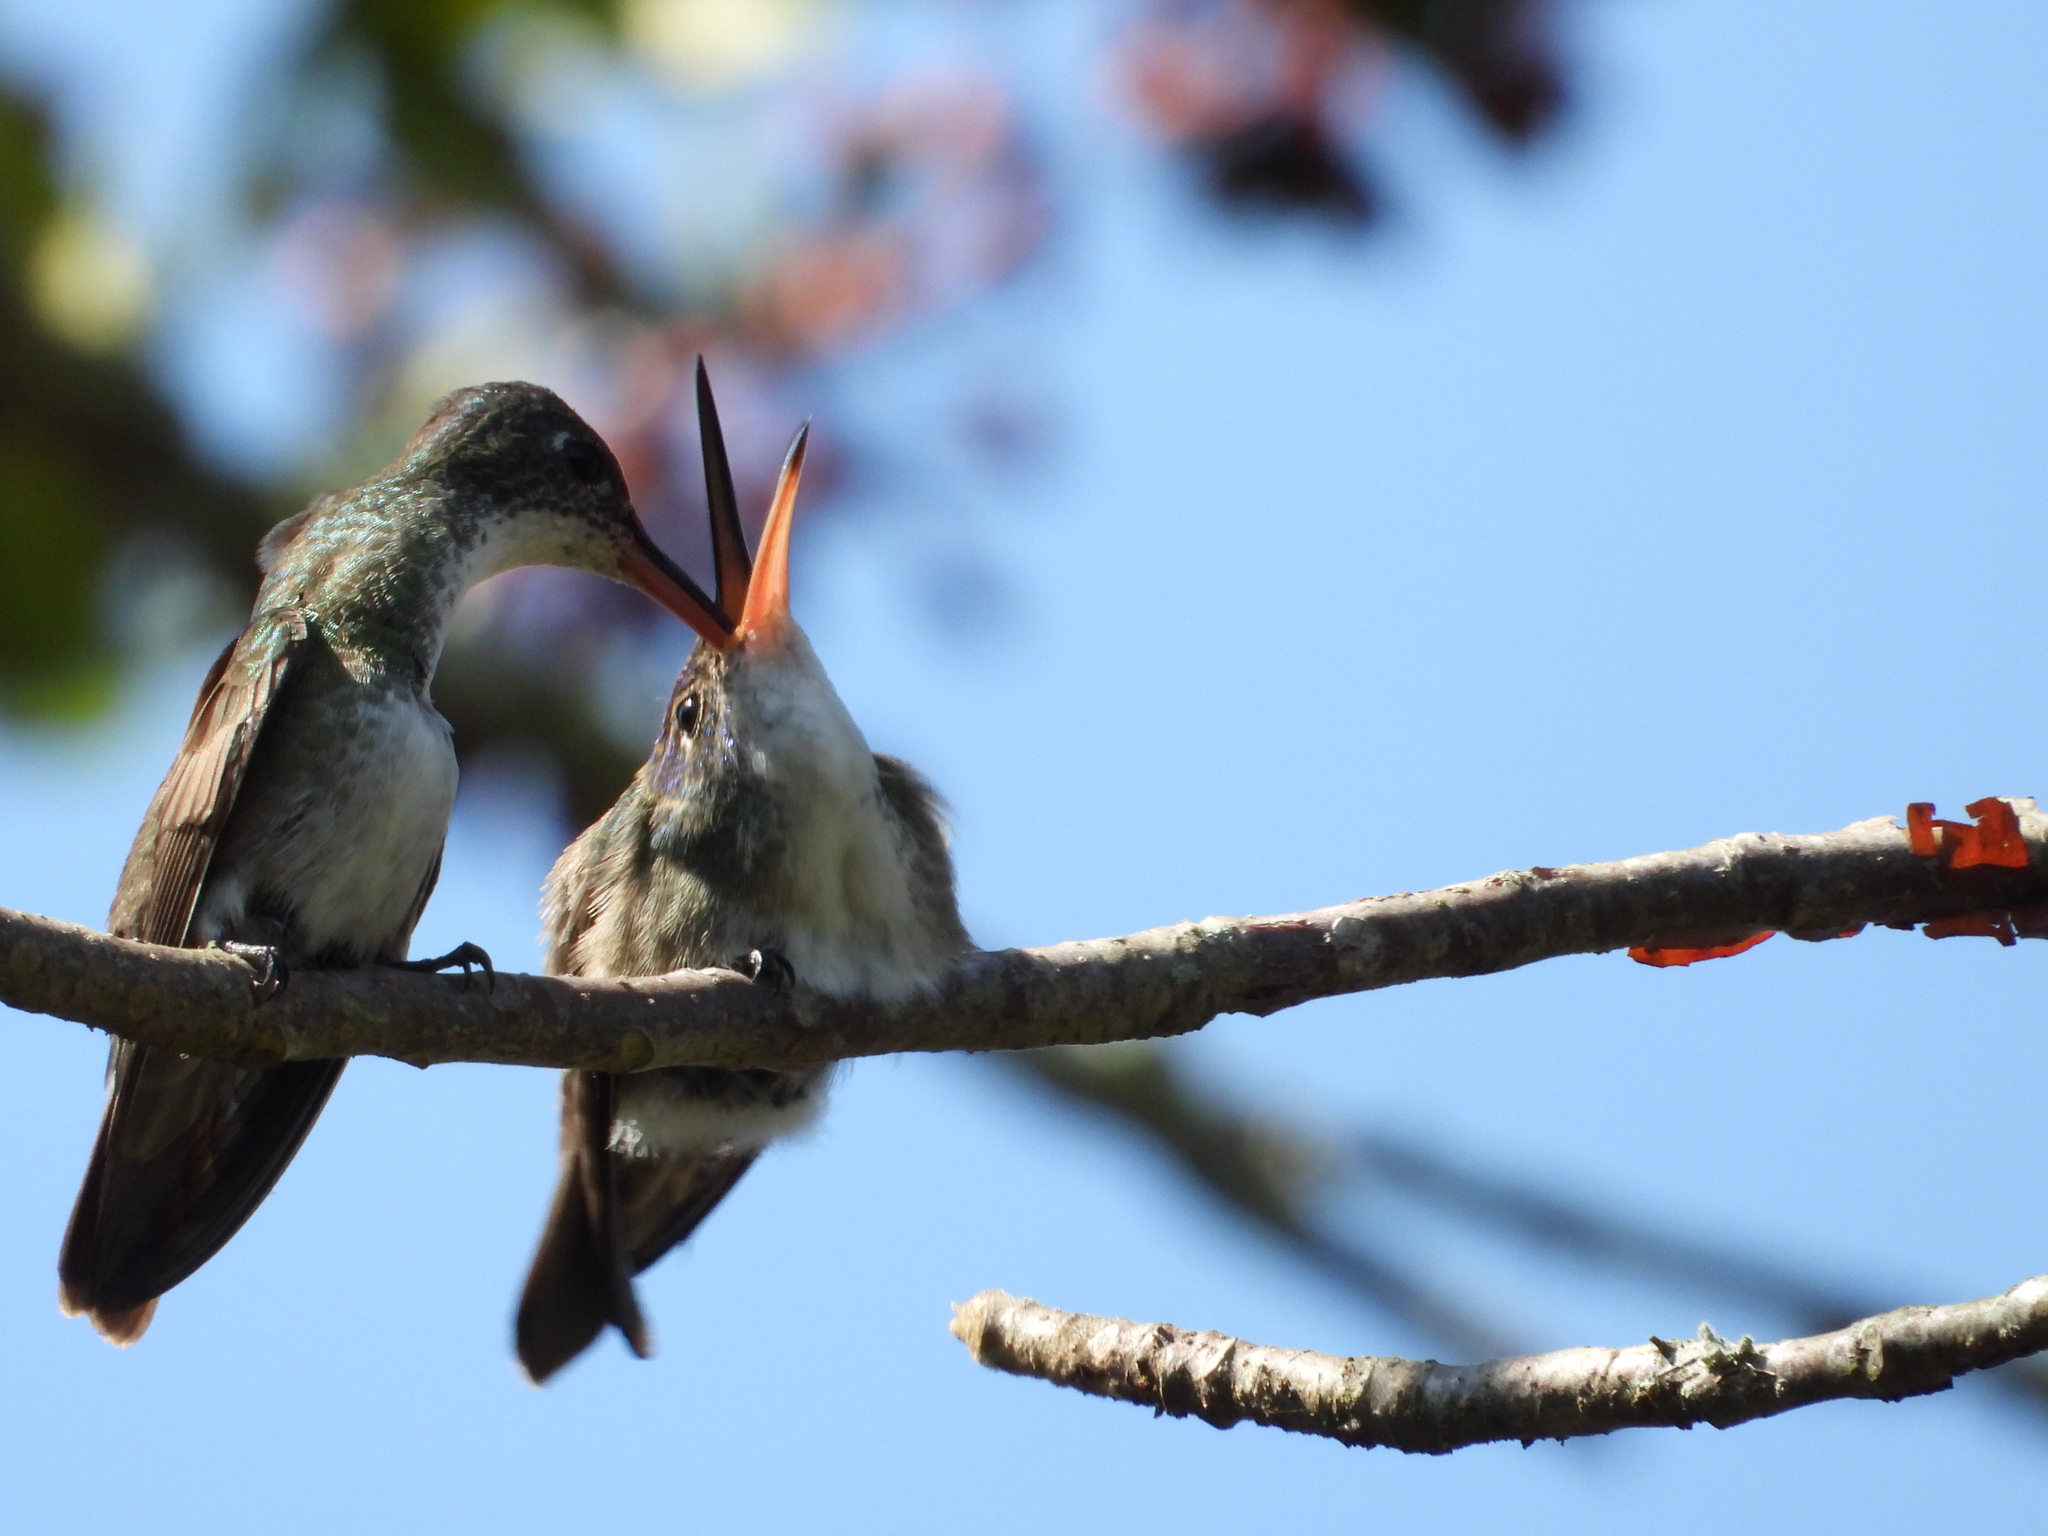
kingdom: Animalia
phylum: Chordata
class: Aves
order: Apodiformes
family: Trochilidae
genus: Saucerottia
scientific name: Saucerottia cyanocephala
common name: Azure-crowned hummingbird
